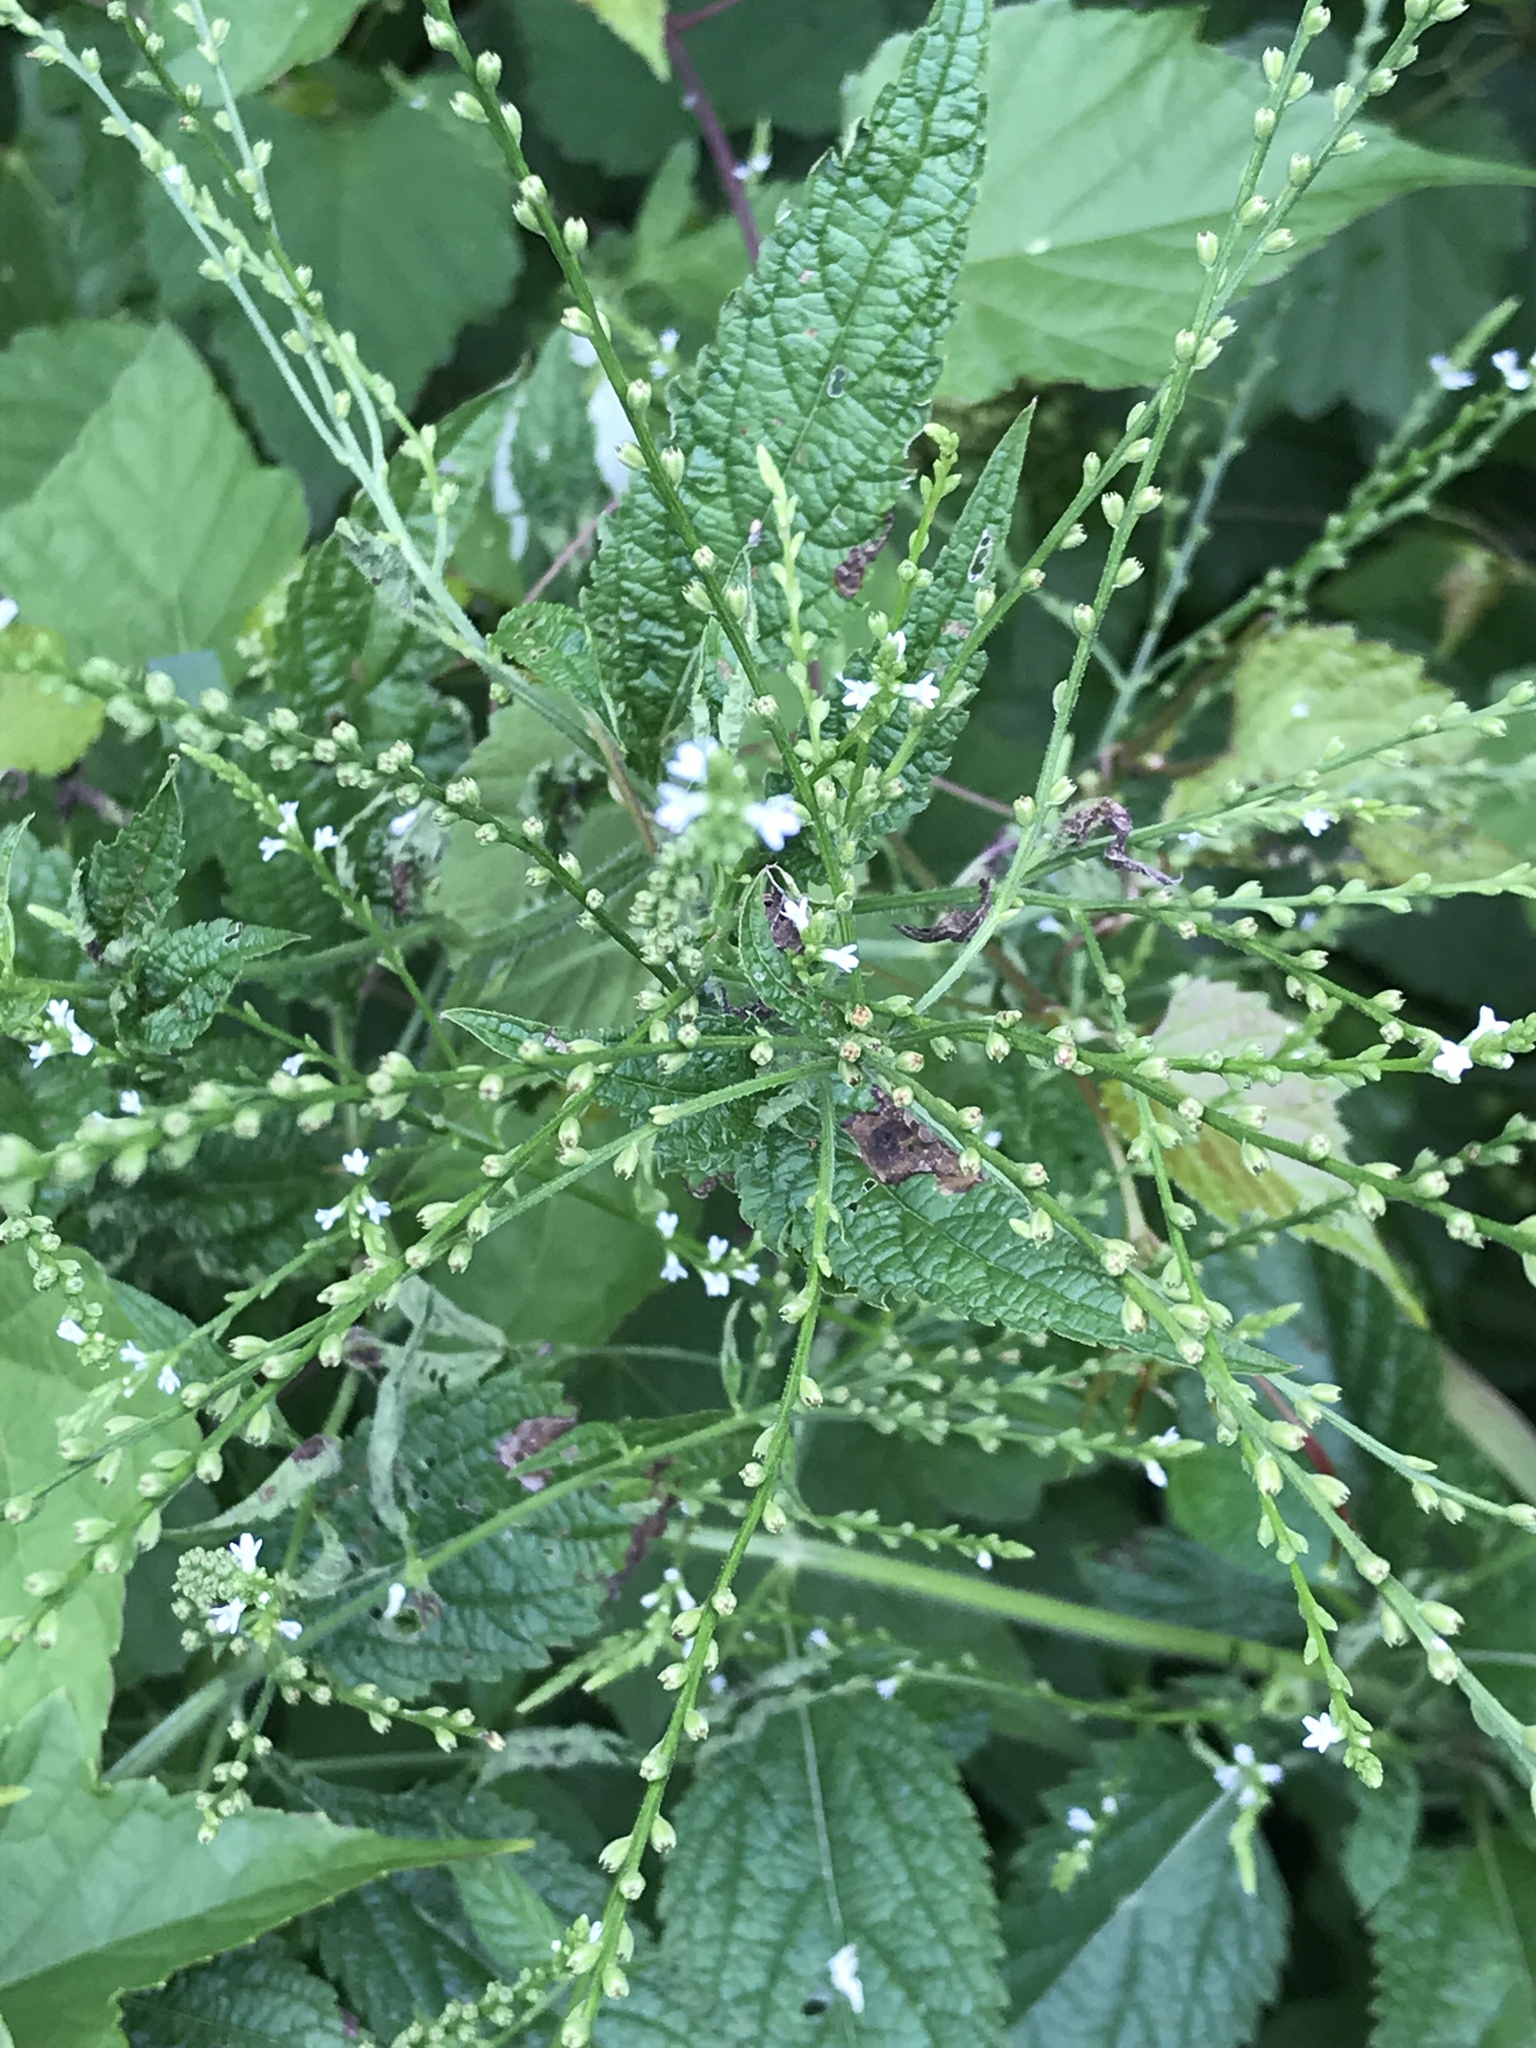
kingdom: Plantae
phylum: Tracheophyta
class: Magnoliopsida
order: Lamiales
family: Verbenaceae
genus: Verbena
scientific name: Verbena urticifolia
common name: Nettle-leaved vervain
